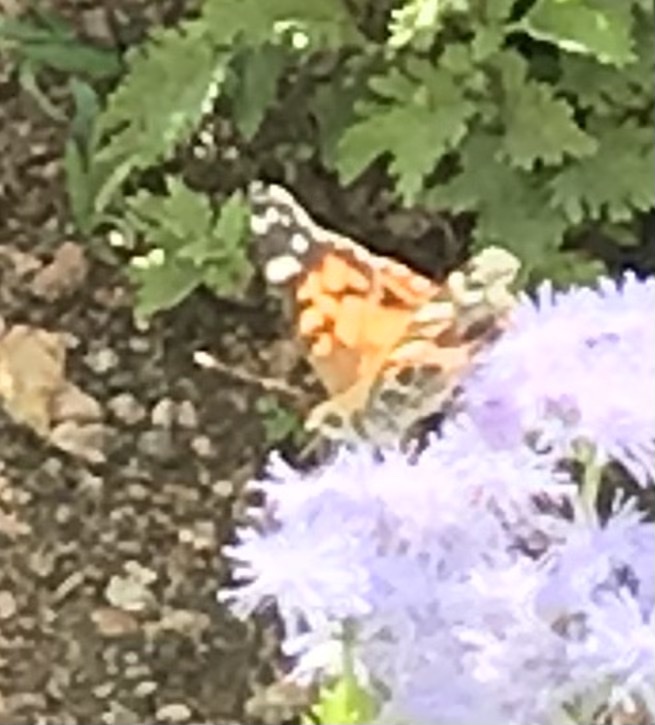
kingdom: Animalia
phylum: Arthropoda
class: Insecta
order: Lepidoptera
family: Nymphalidae
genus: Vanessa
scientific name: Vanessa virginiensis
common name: American lady
